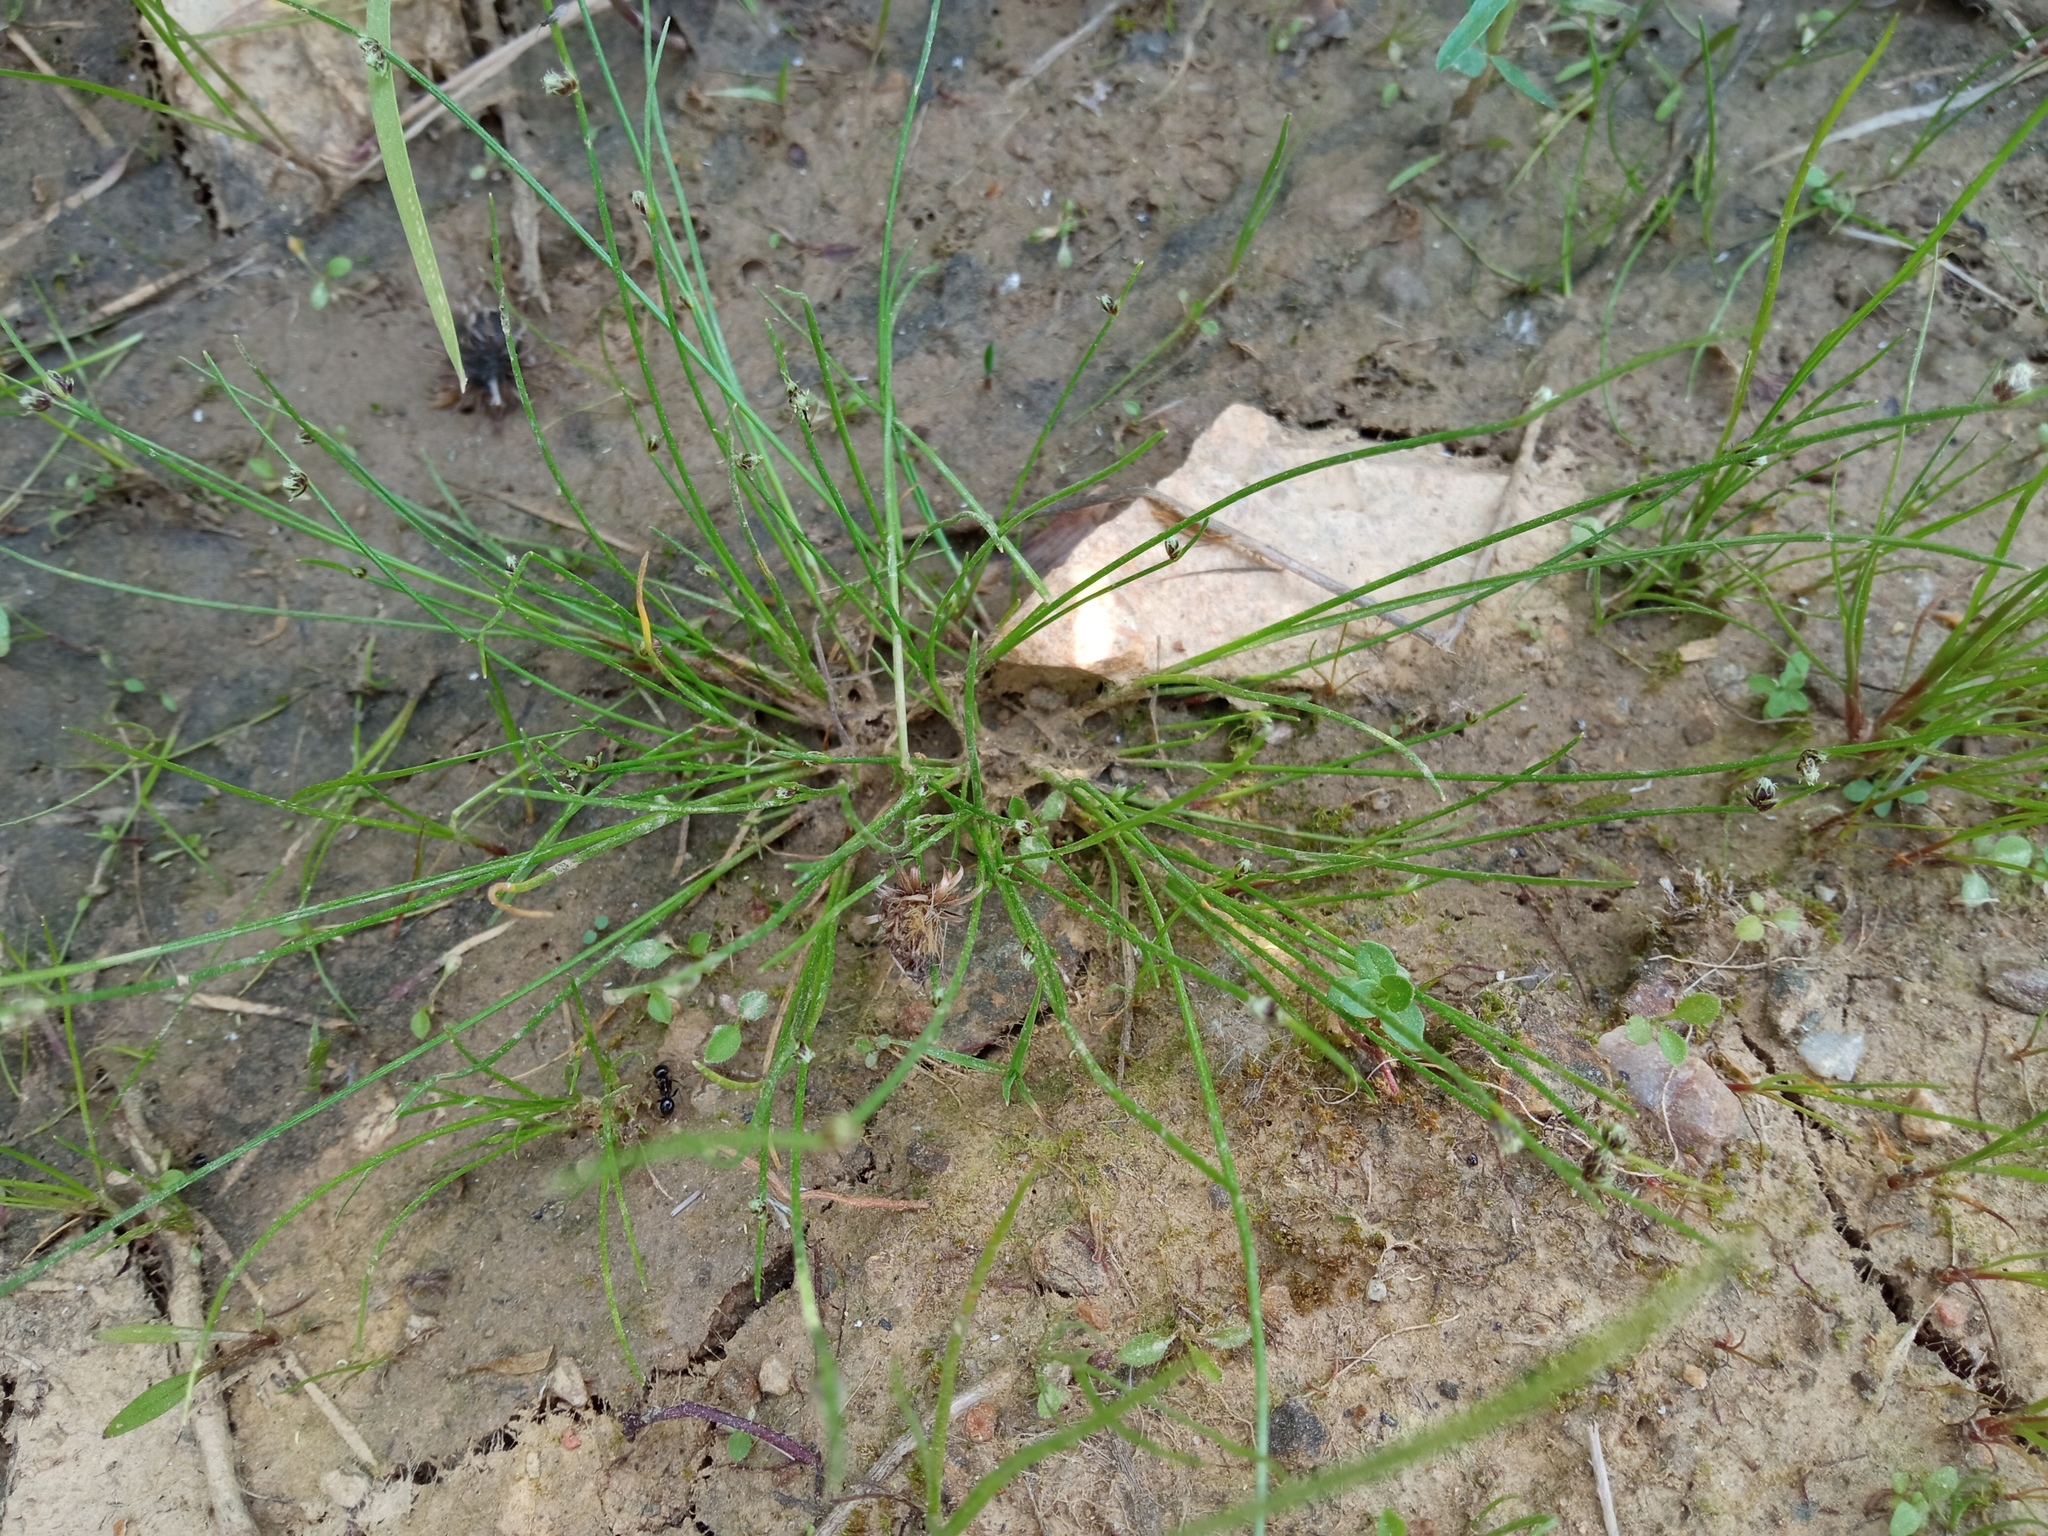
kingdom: Plantae
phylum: Tracheophyta
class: Liliopsida
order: Poales
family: Cyperaceae
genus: Isolepis
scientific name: Isolepis setacea
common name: Bristle club-rush
